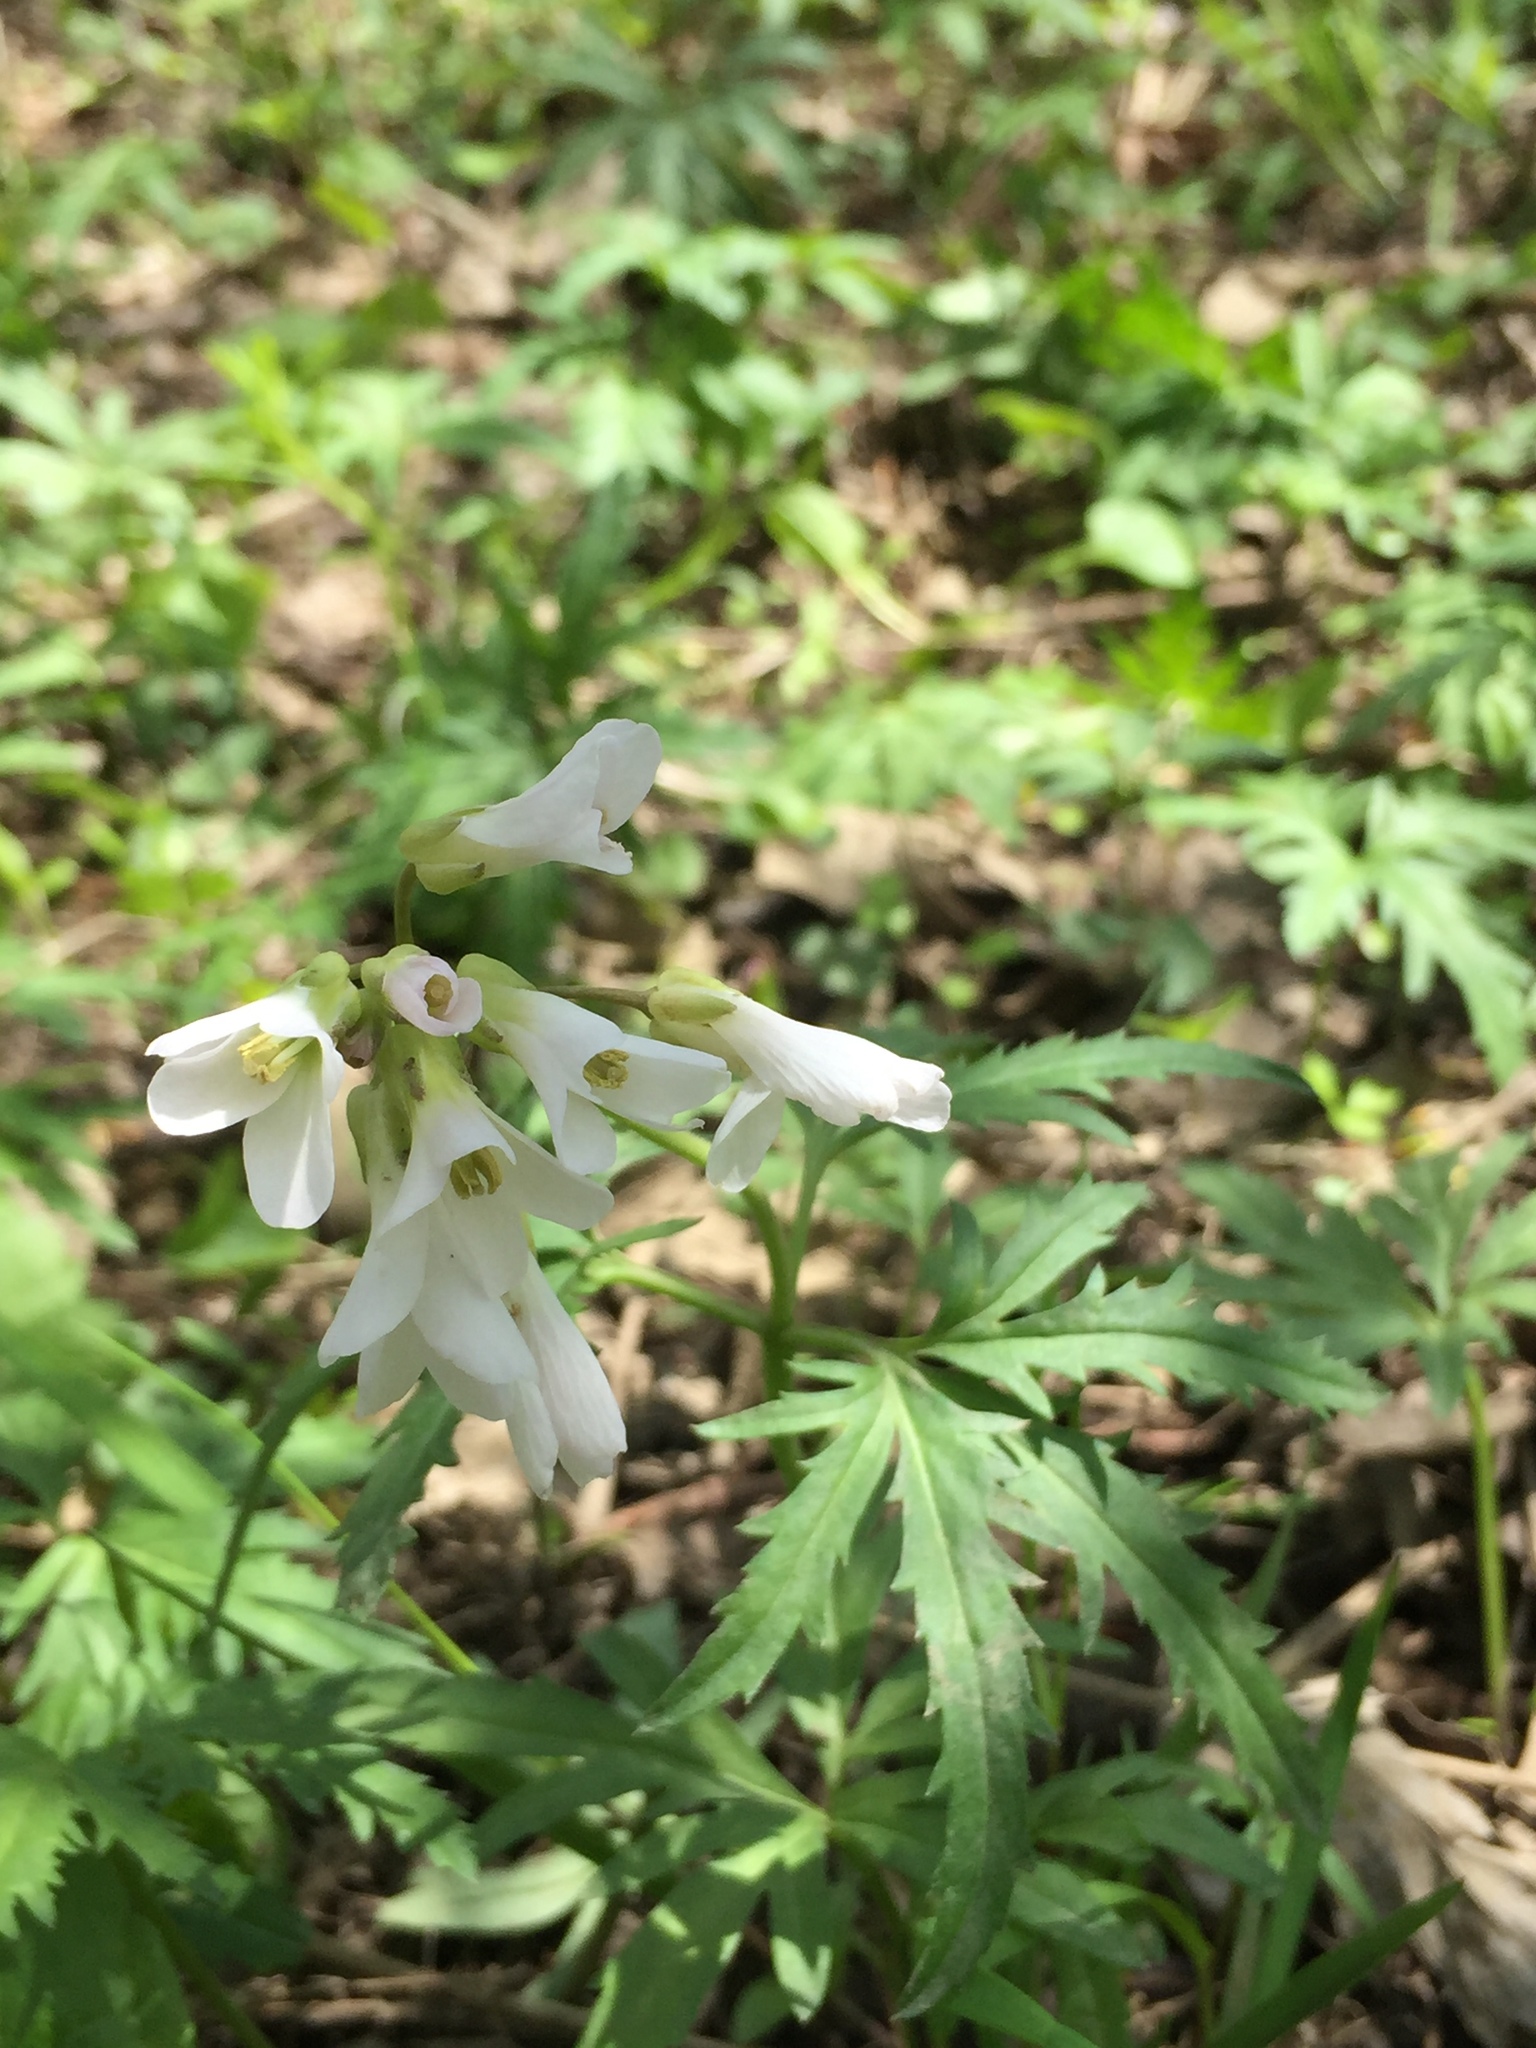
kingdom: Plantae
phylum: Tracheophyta
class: Magnoliopsida
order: Brassicales
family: Brassicaceae
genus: Cardamine
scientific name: Cardamine concatenata
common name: Cut-leaf toothcup
